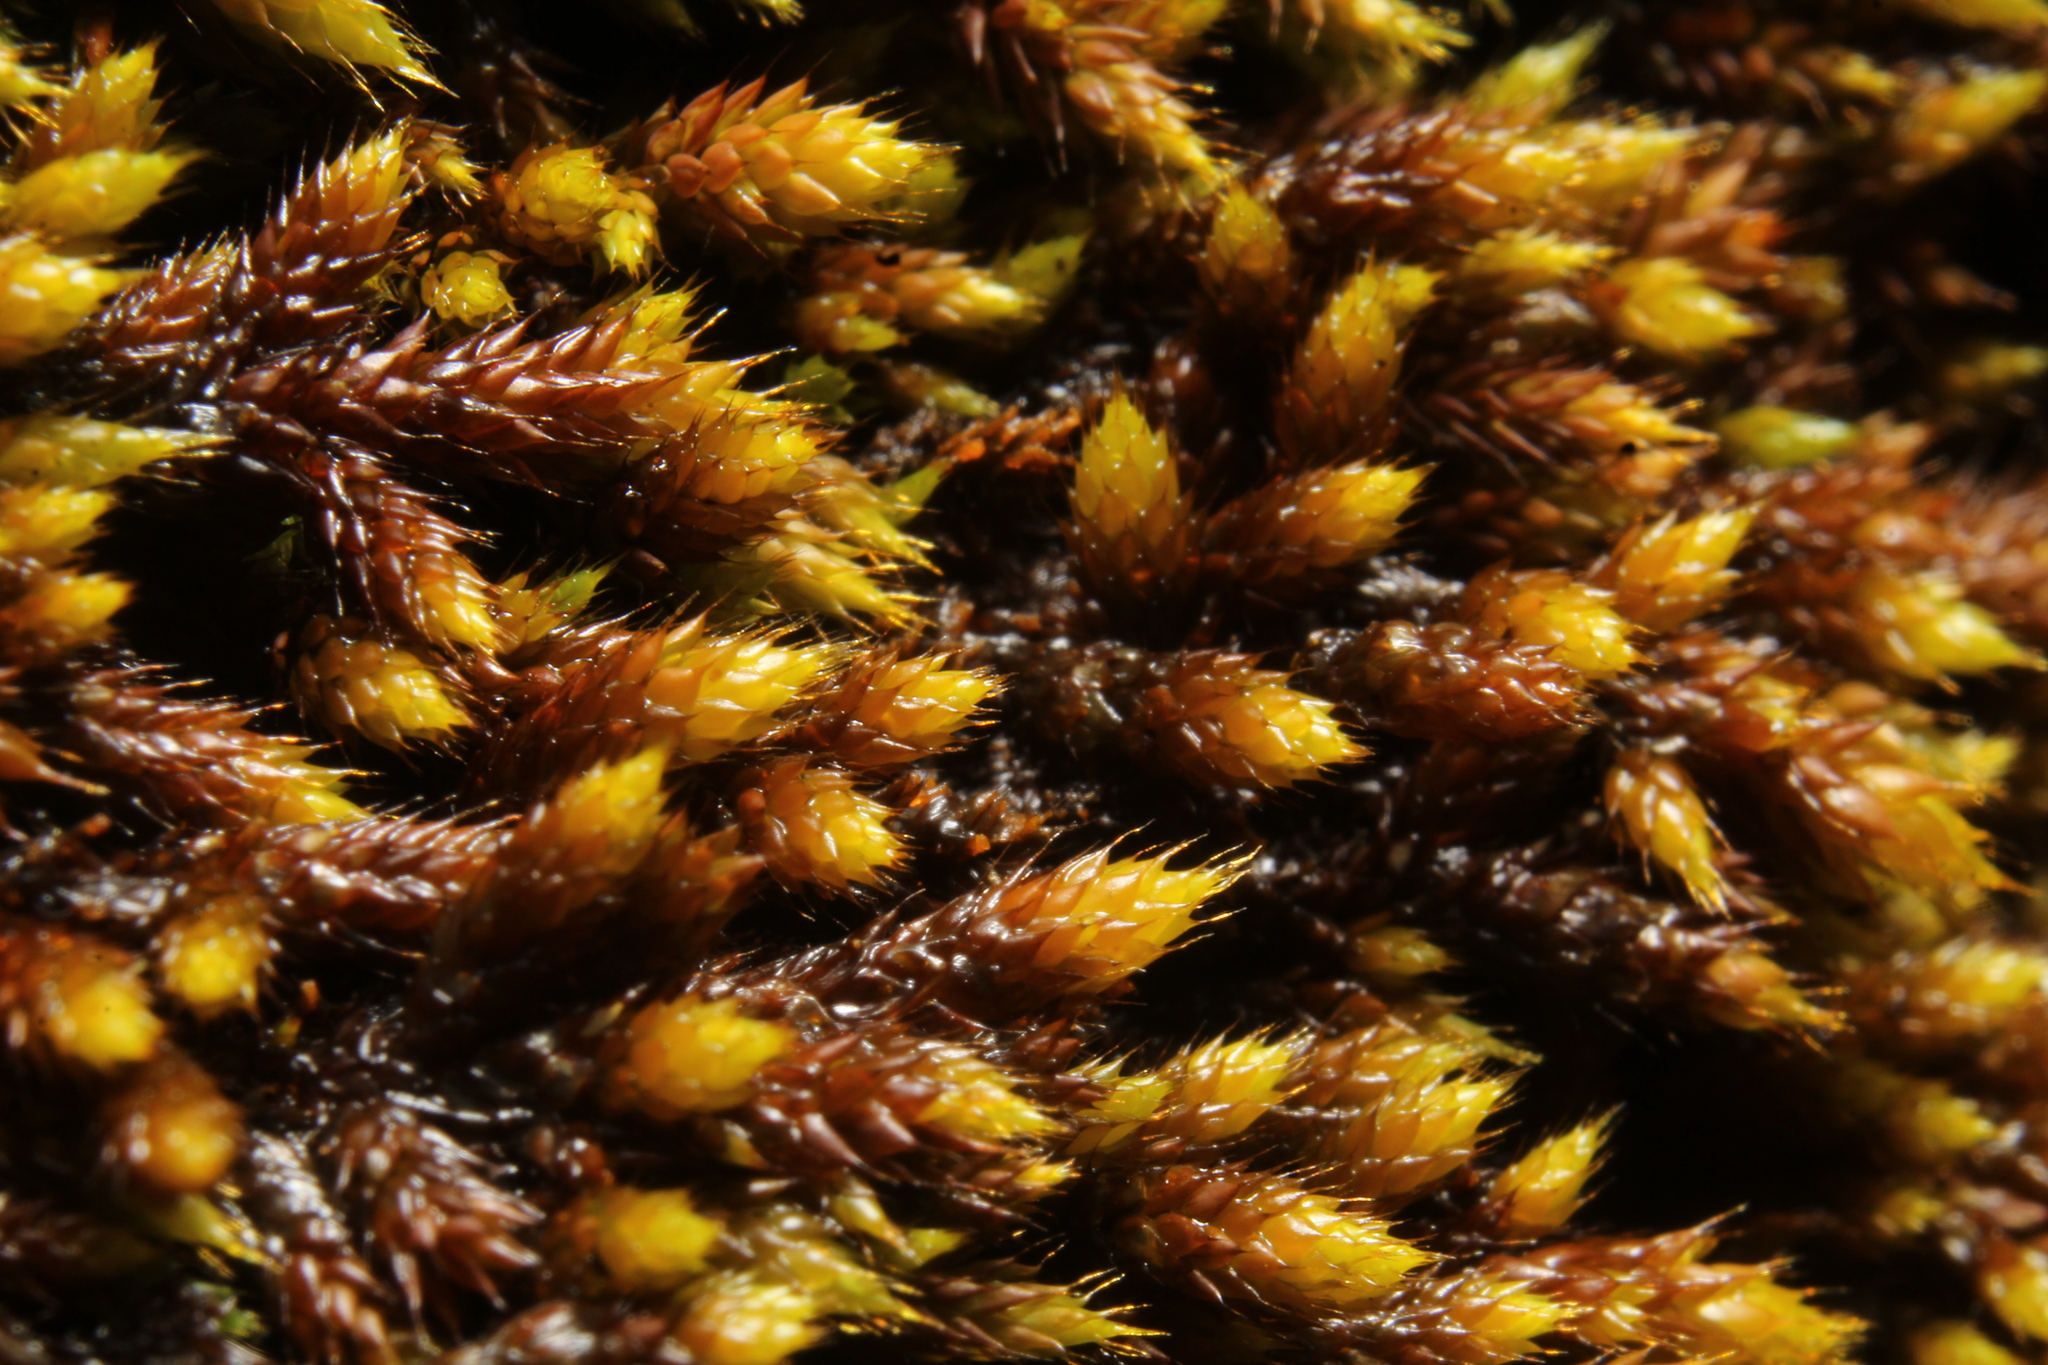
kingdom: Plantae
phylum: Bryophyta
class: Bryopsida
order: Hedwigiales
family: Hedwigiaceae
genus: Rhacocarpus
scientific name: Rhacocarpus purpurascens
